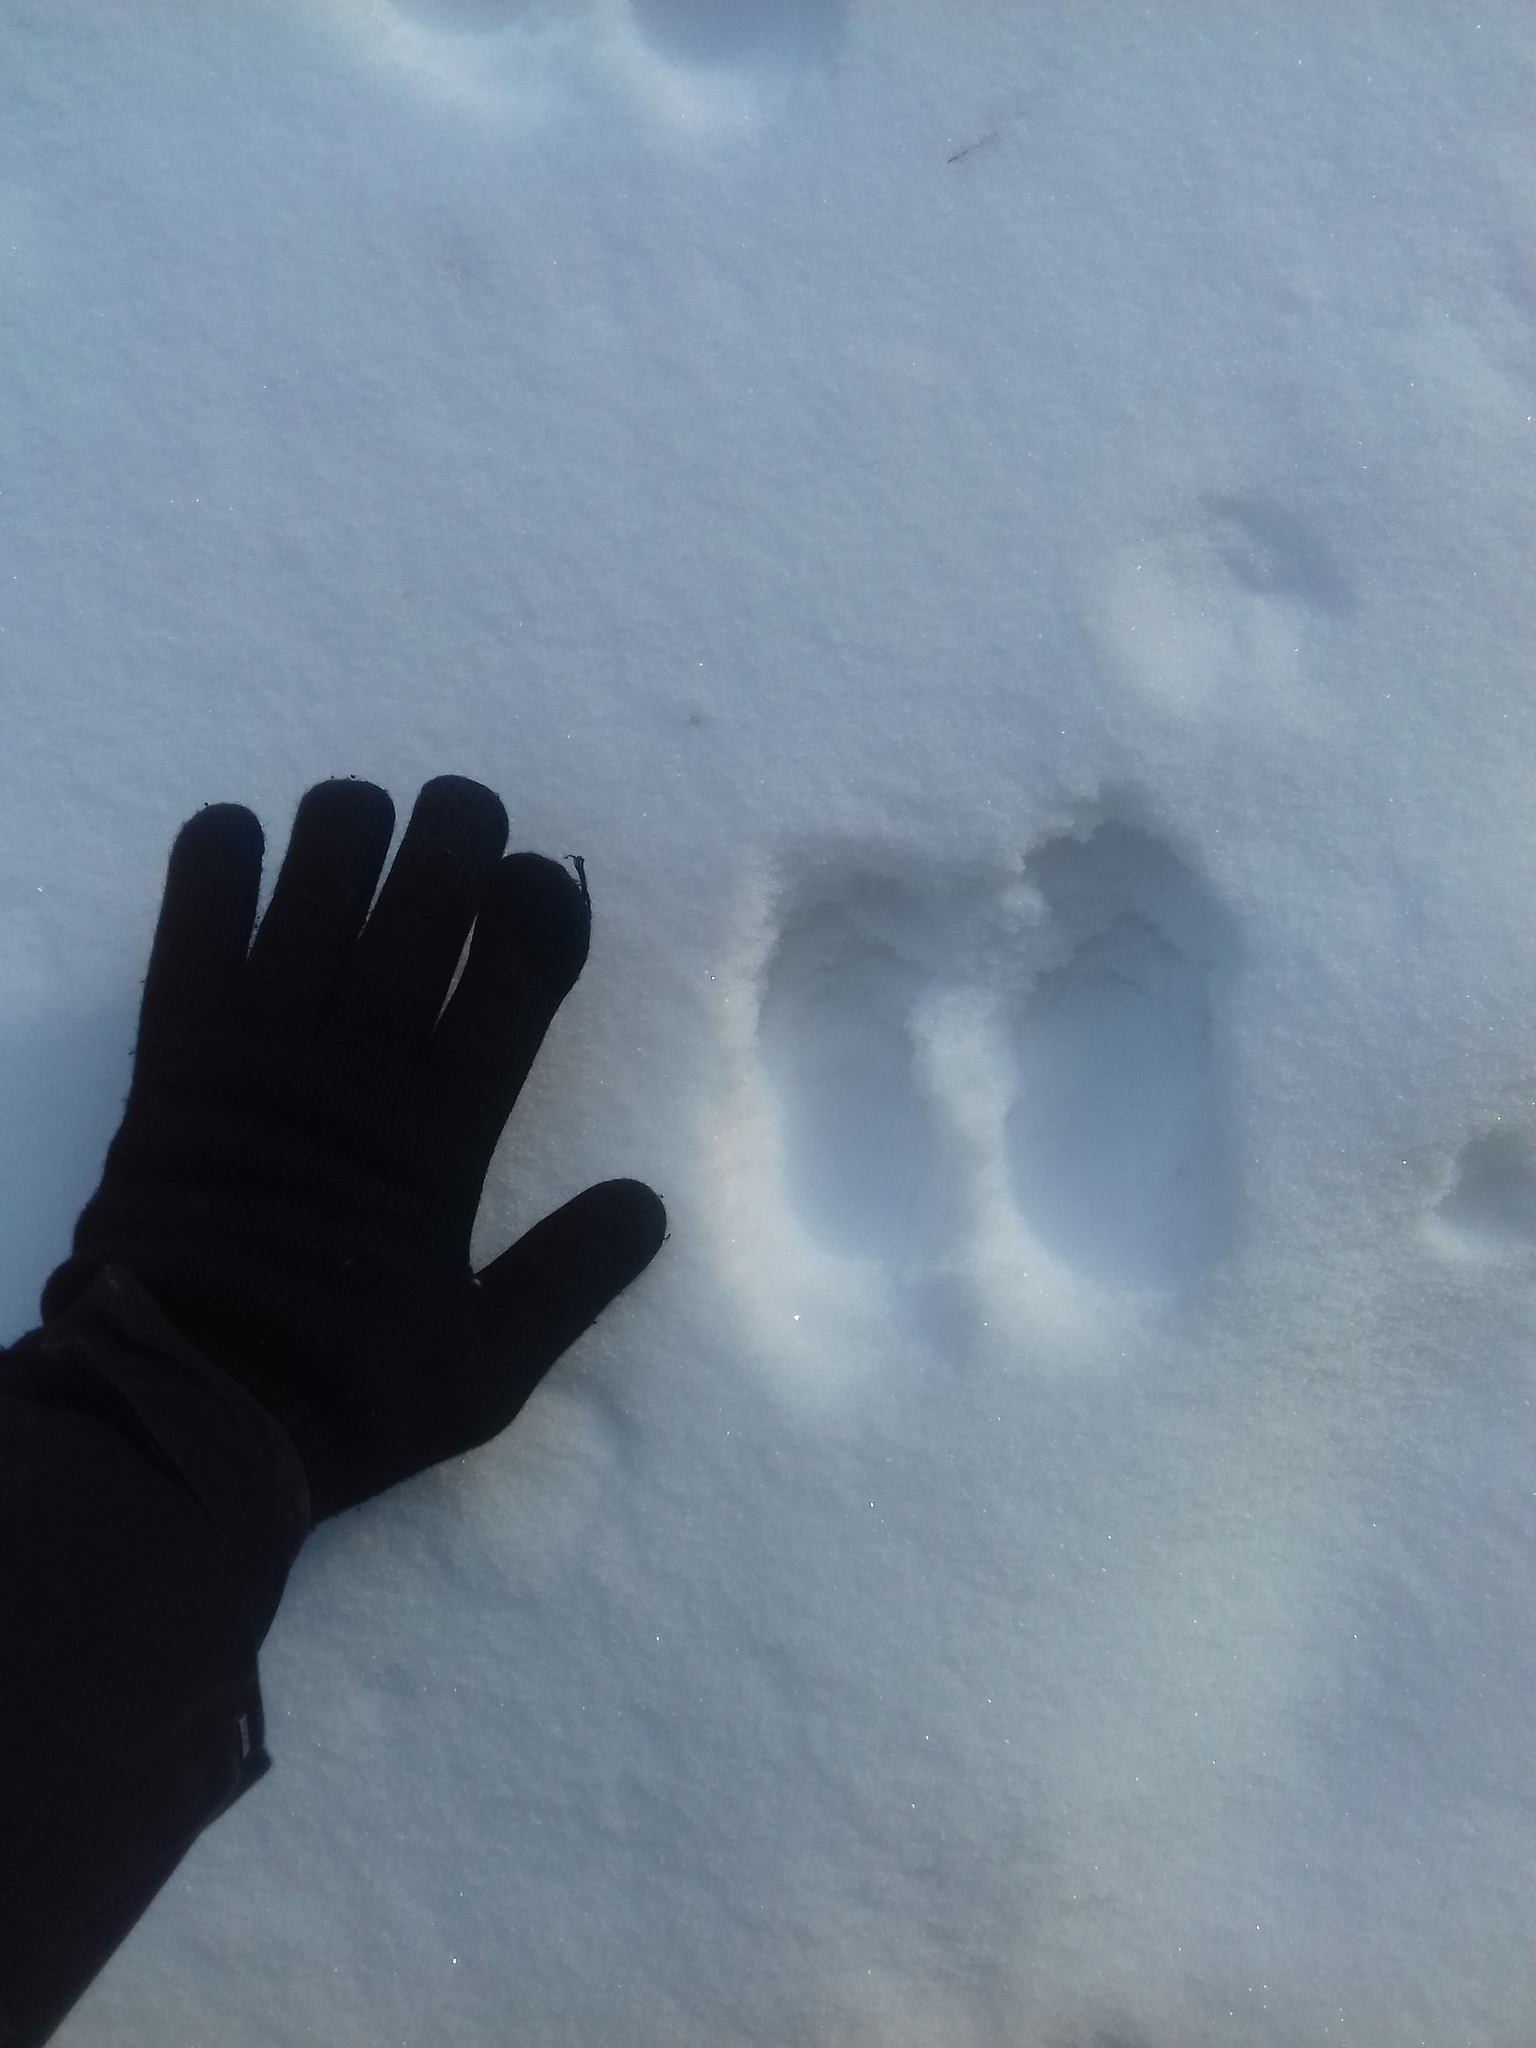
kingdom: Animalia
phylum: Chordata
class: Mammalia
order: Carnivora
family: Mustelidae
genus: Martes
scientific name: Martes martes
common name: European pine marten
